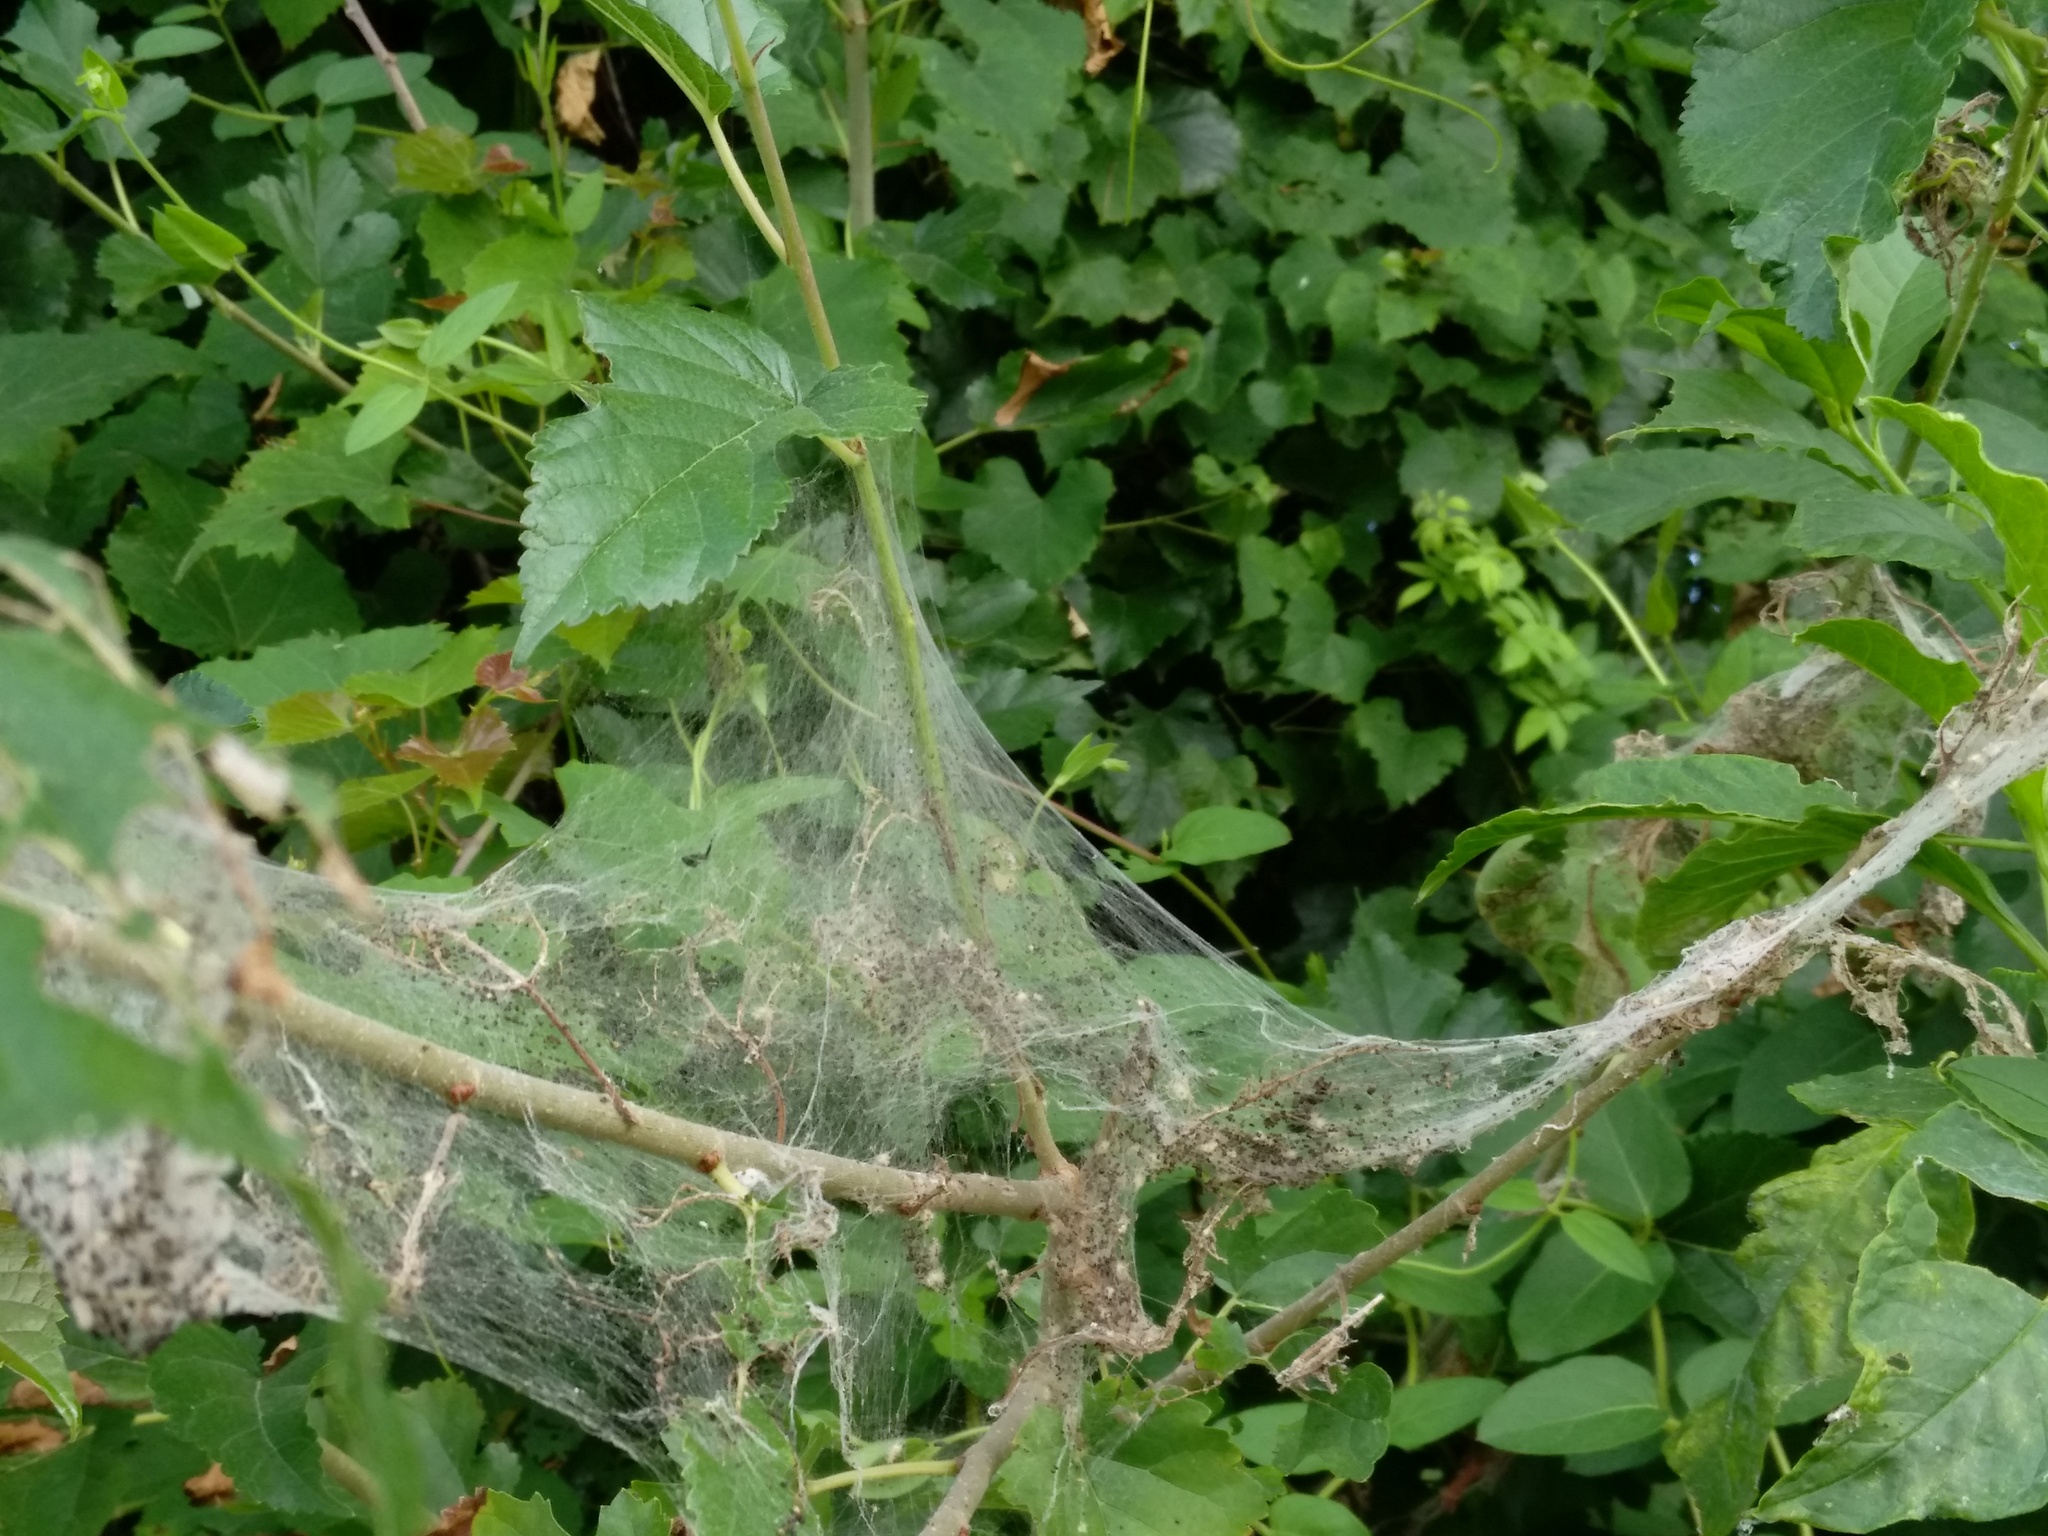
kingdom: Animalia
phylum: Arthropoda
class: Insecta
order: Lepidoptera
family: Erebidae
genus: Hyphantria
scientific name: Hyphantria cunea
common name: American white moth
